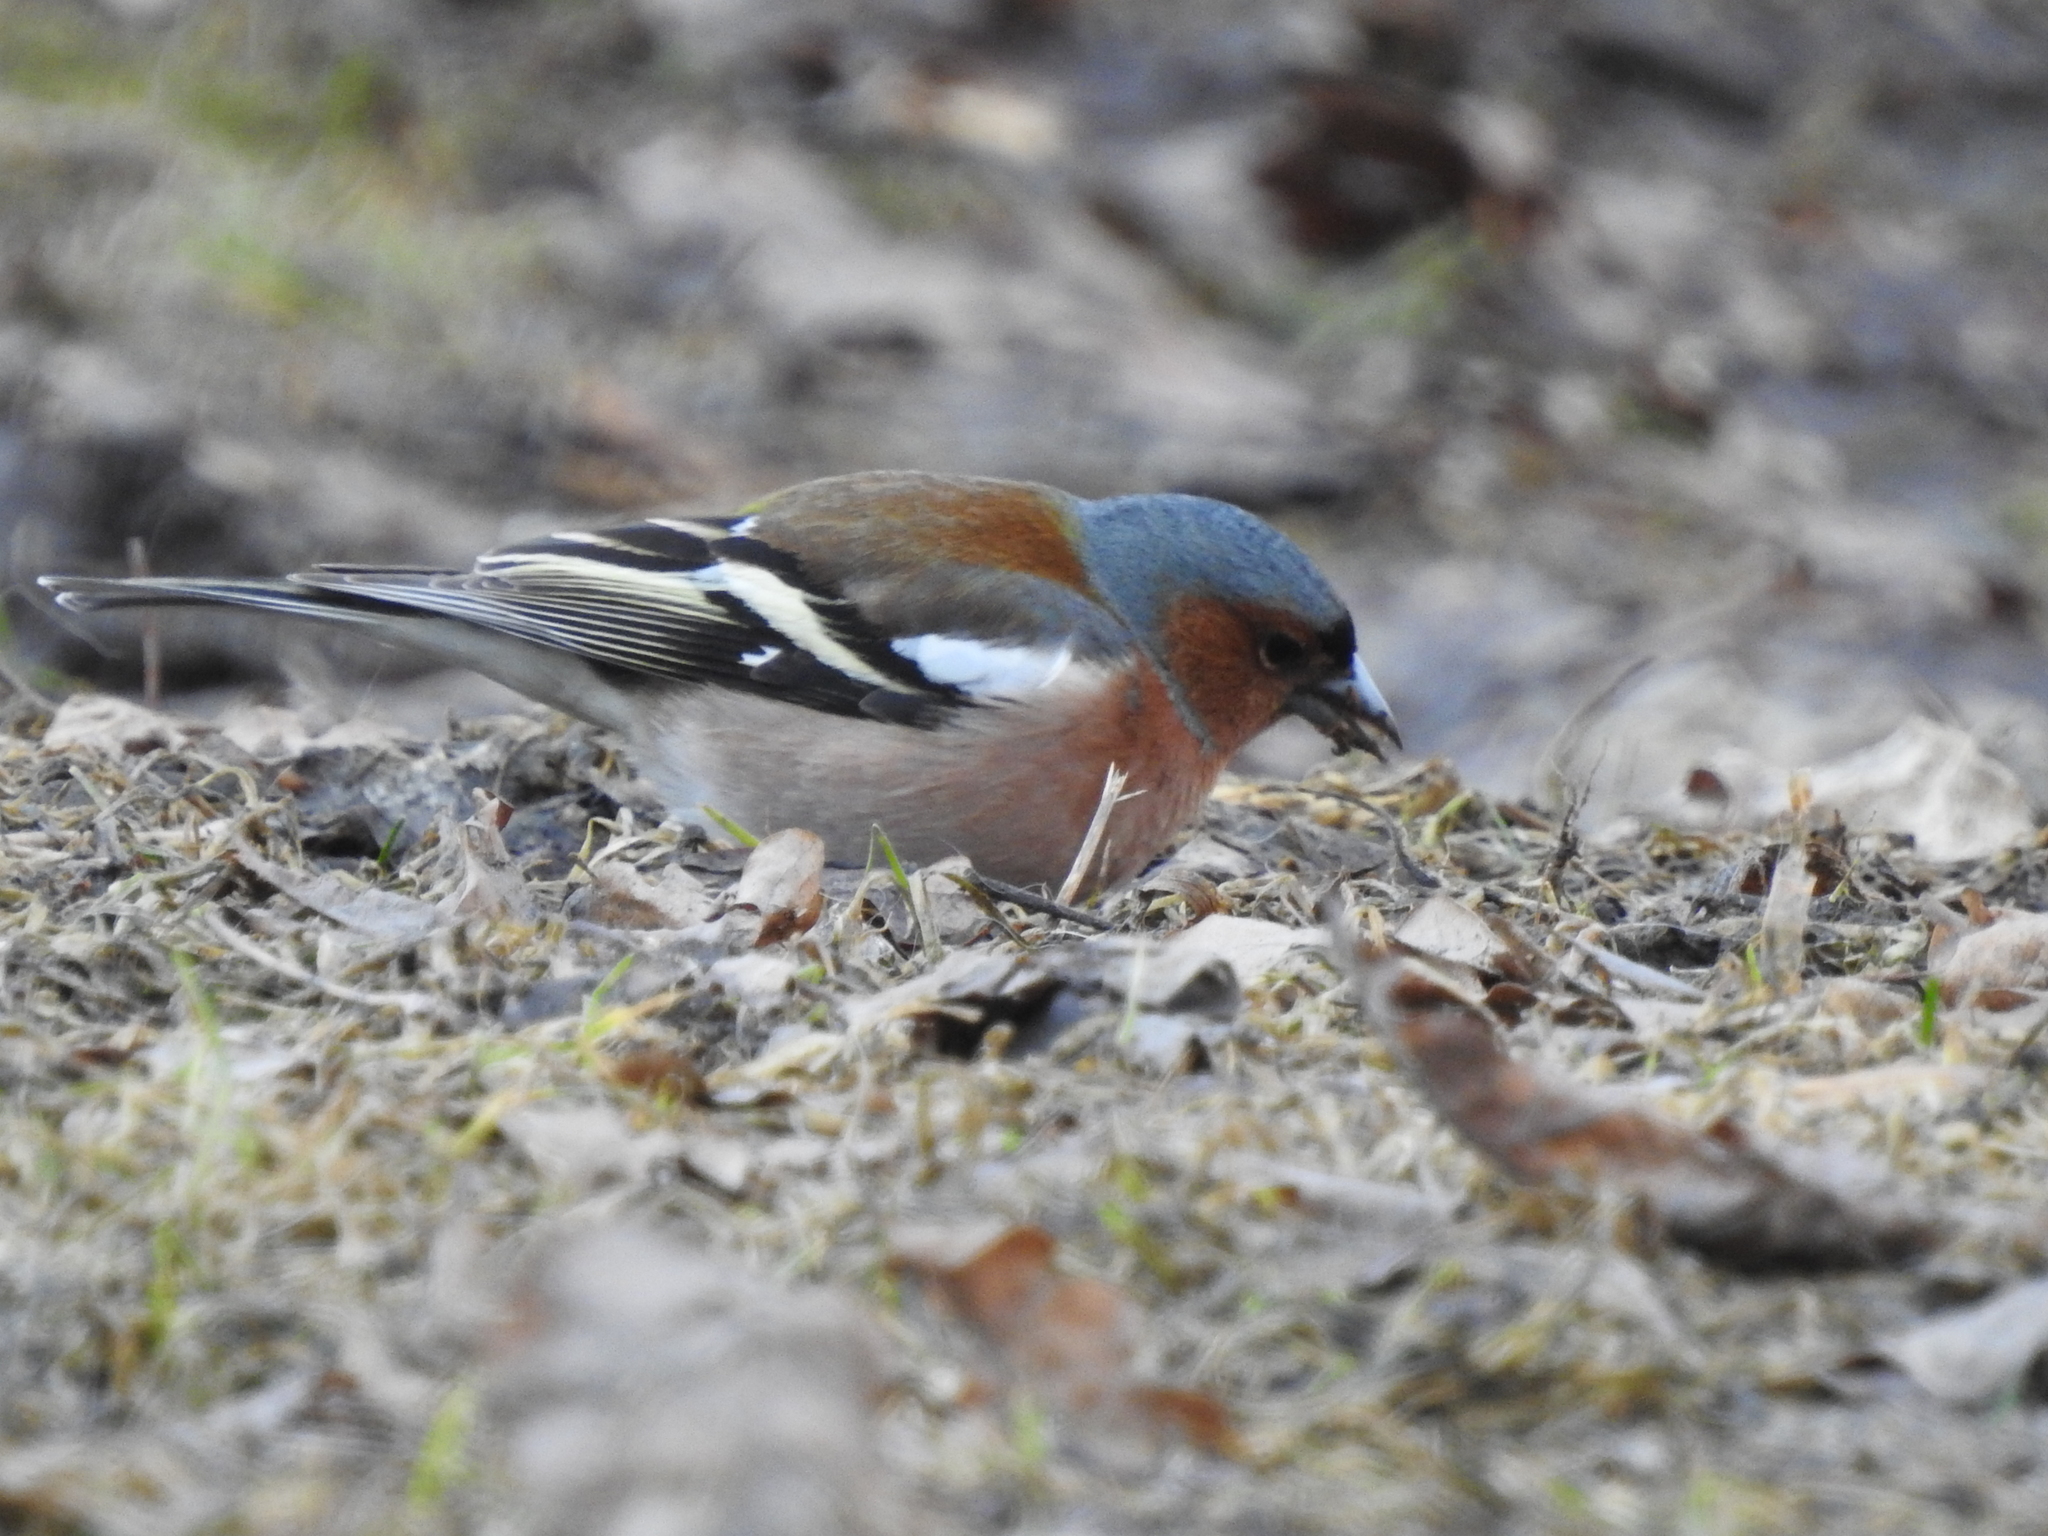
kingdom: Animalia
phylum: Chordata
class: Aves
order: Passeriformes
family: Fringillidae
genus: Fringilla
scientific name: Fringilla coelebs
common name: Common chaffinch
